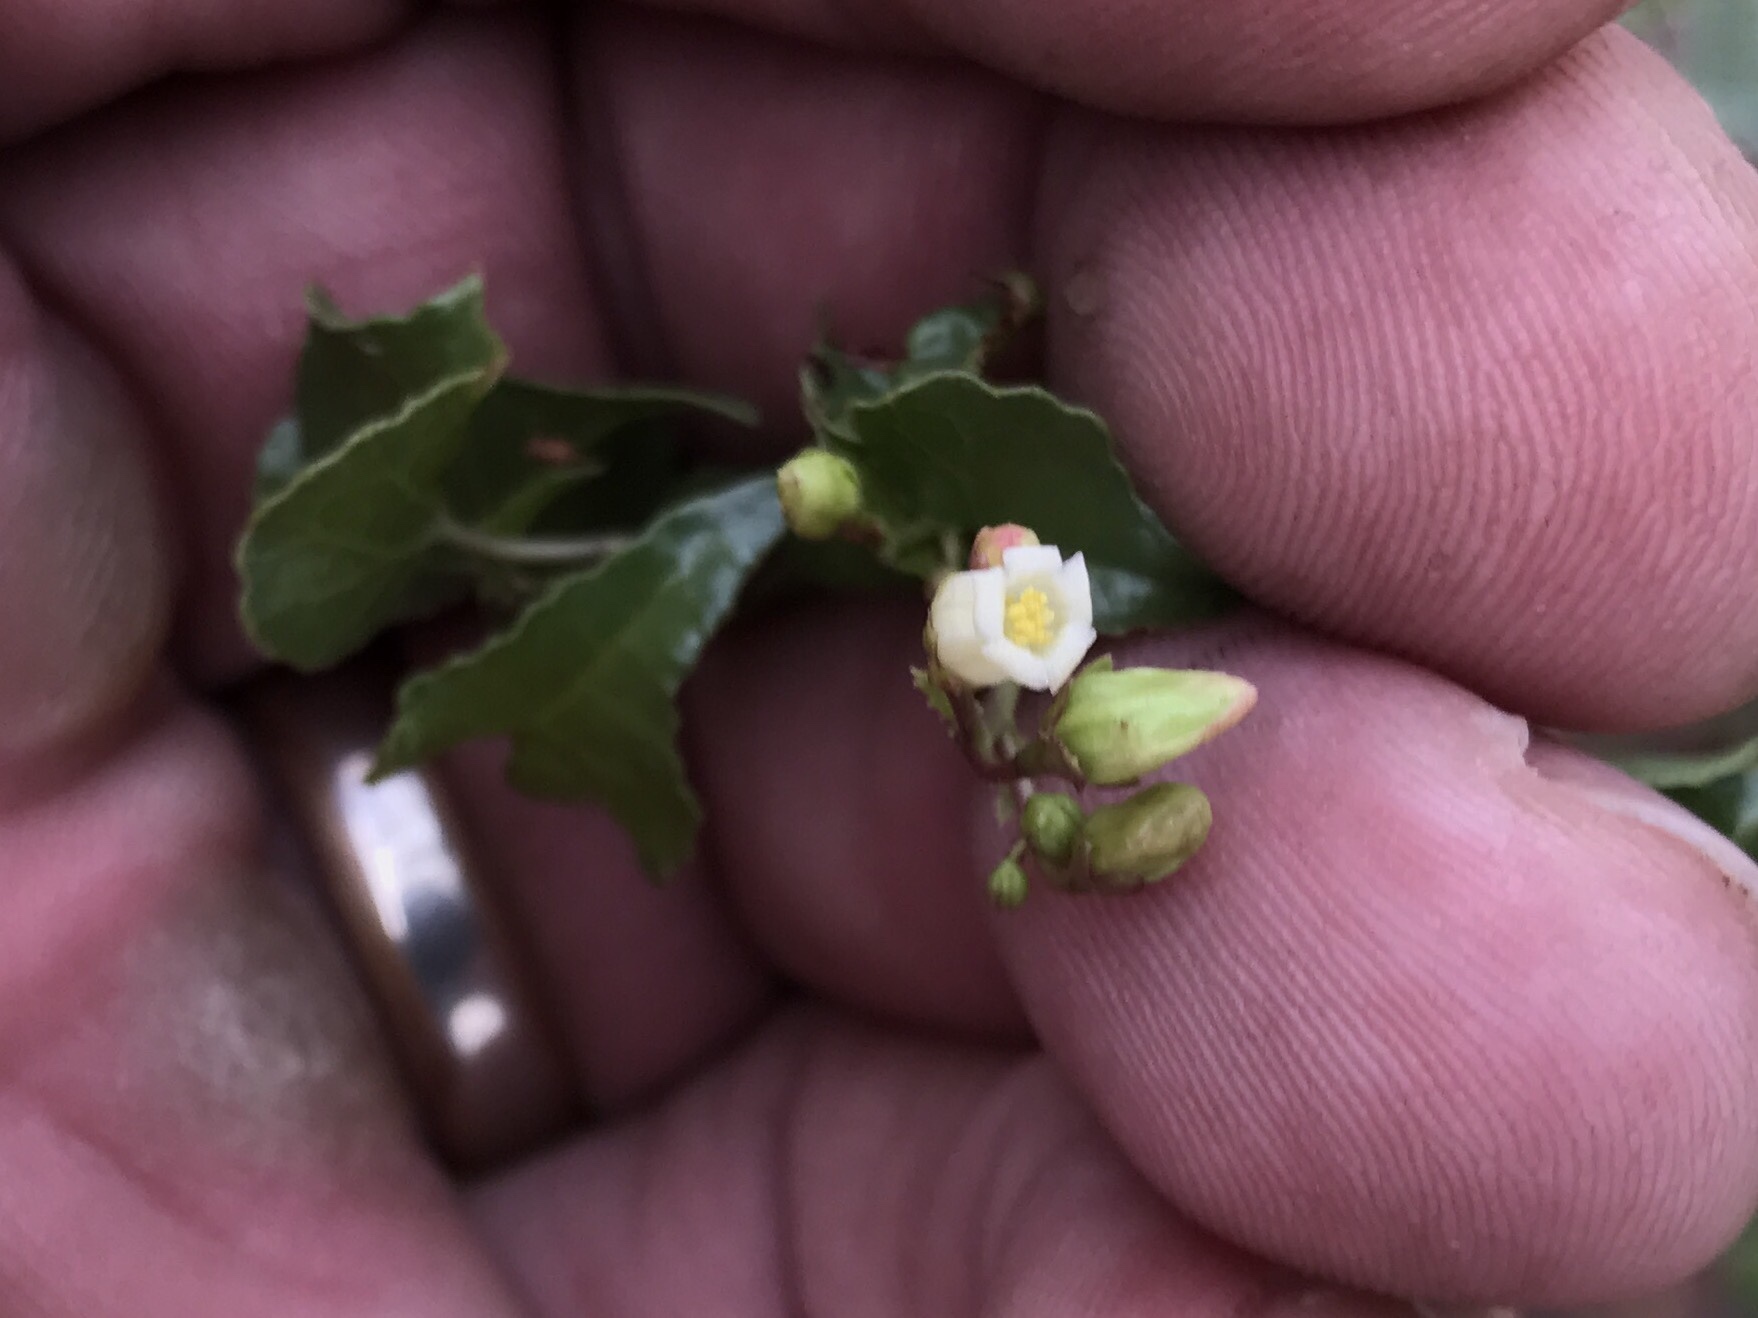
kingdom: Plantae
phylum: Tracheophyta
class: Magnoliopsida
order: Malpighiales
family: Euphorbiaceae
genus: Jatropha
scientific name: Jatropha cardiophylla
